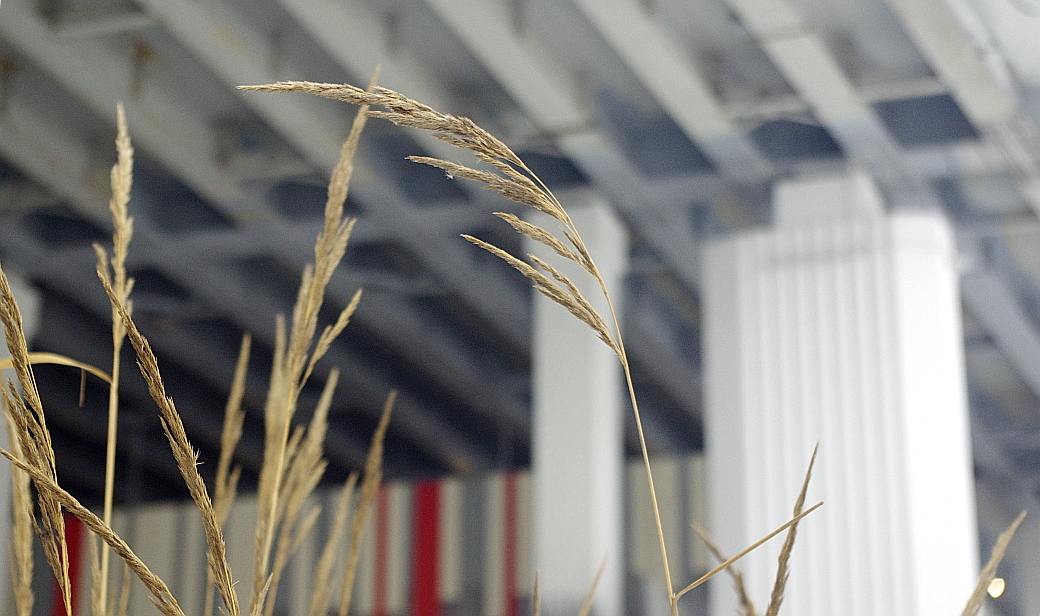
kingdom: Plantae
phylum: Tracheophyta
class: Liliopsida
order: Poales
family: Poaceae
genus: Calamagrostis
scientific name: Calamagrostis epigejos
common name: Wood small-reed
